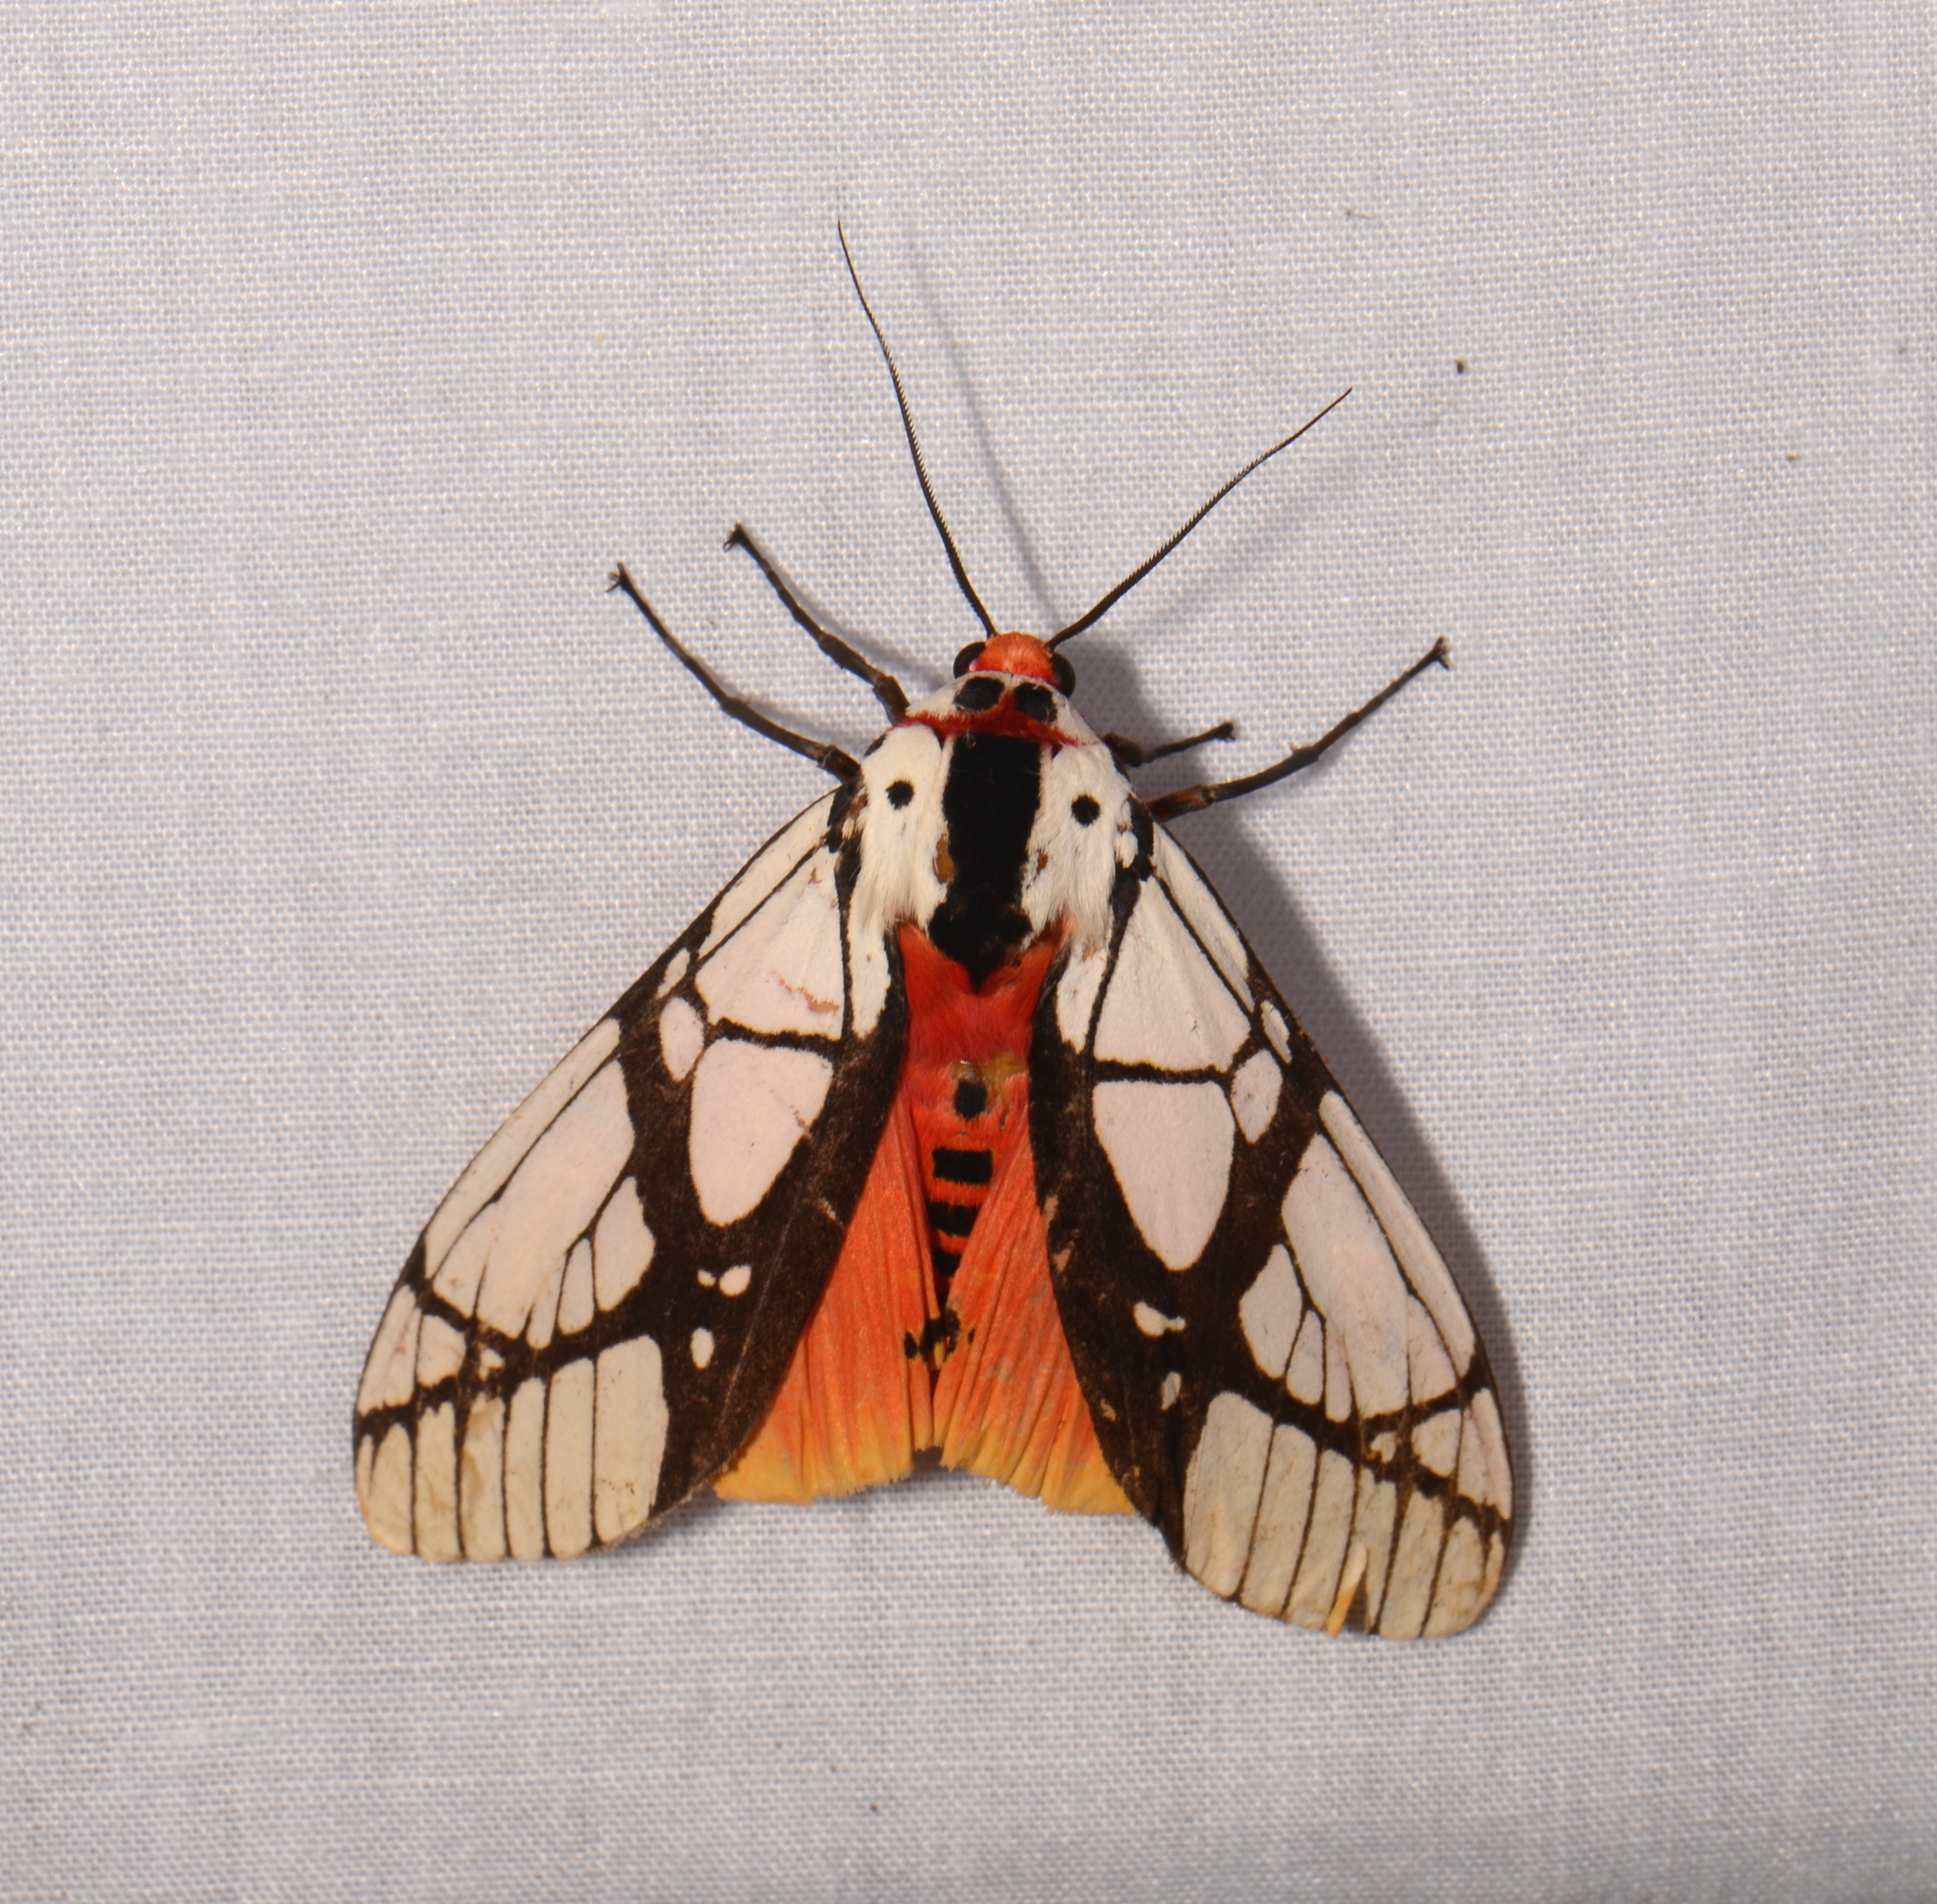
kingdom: Animalia
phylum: Arthropoda
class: Insecta
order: Lepidoptera
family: Erebidae
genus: Areas
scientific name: Areas galactina
